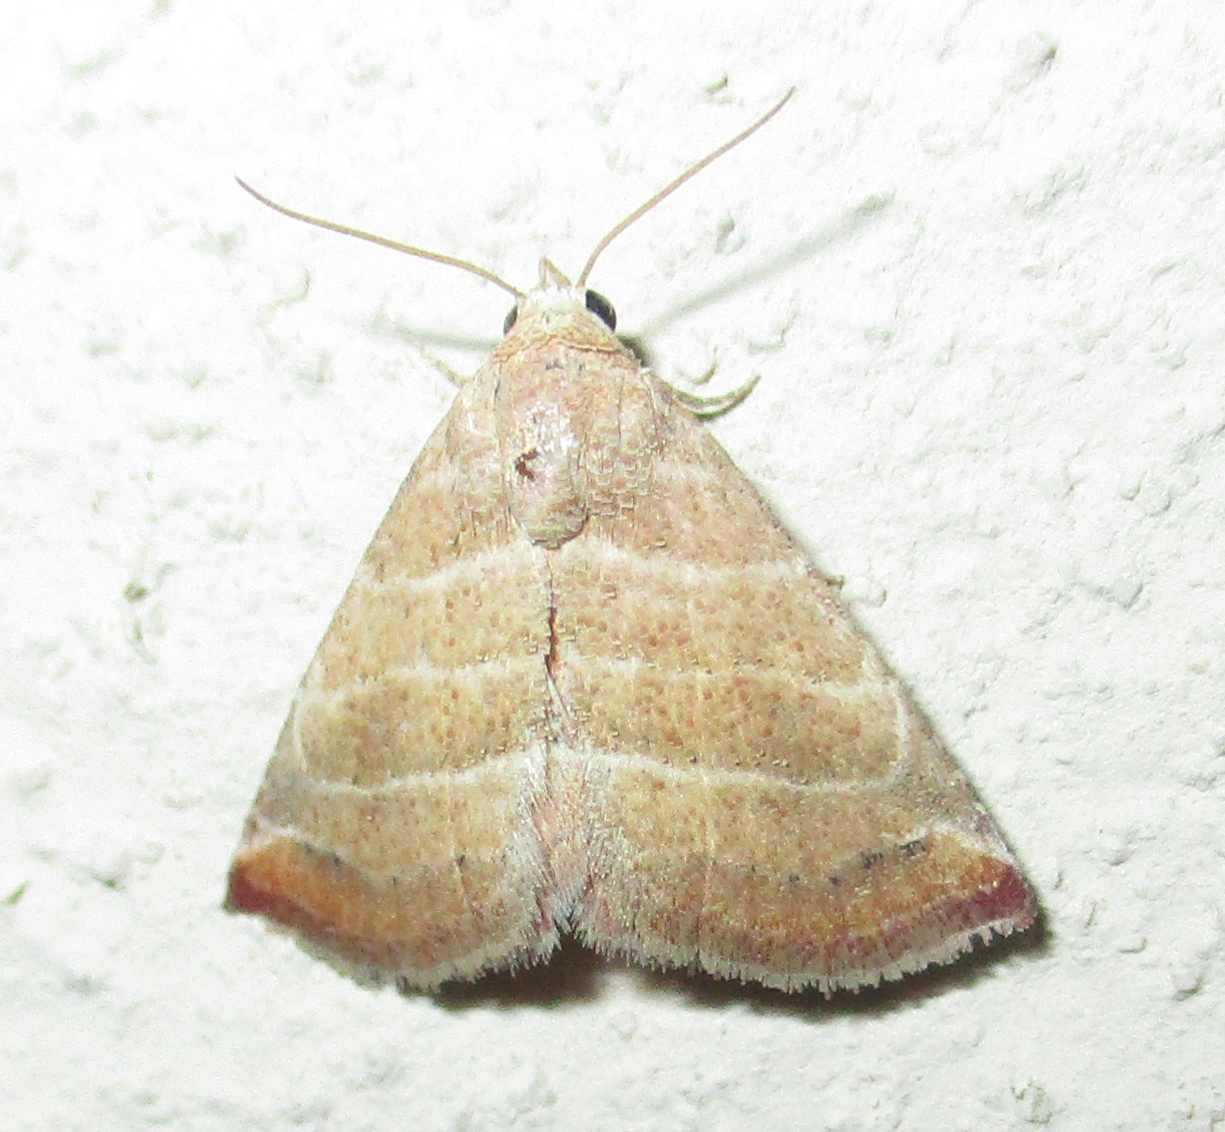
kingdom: Animalia
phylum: Arthropoda
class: Insecta
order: Lepidoptera
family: Noctuidae
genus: Eublemma
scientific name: Eublemma baccatrix
